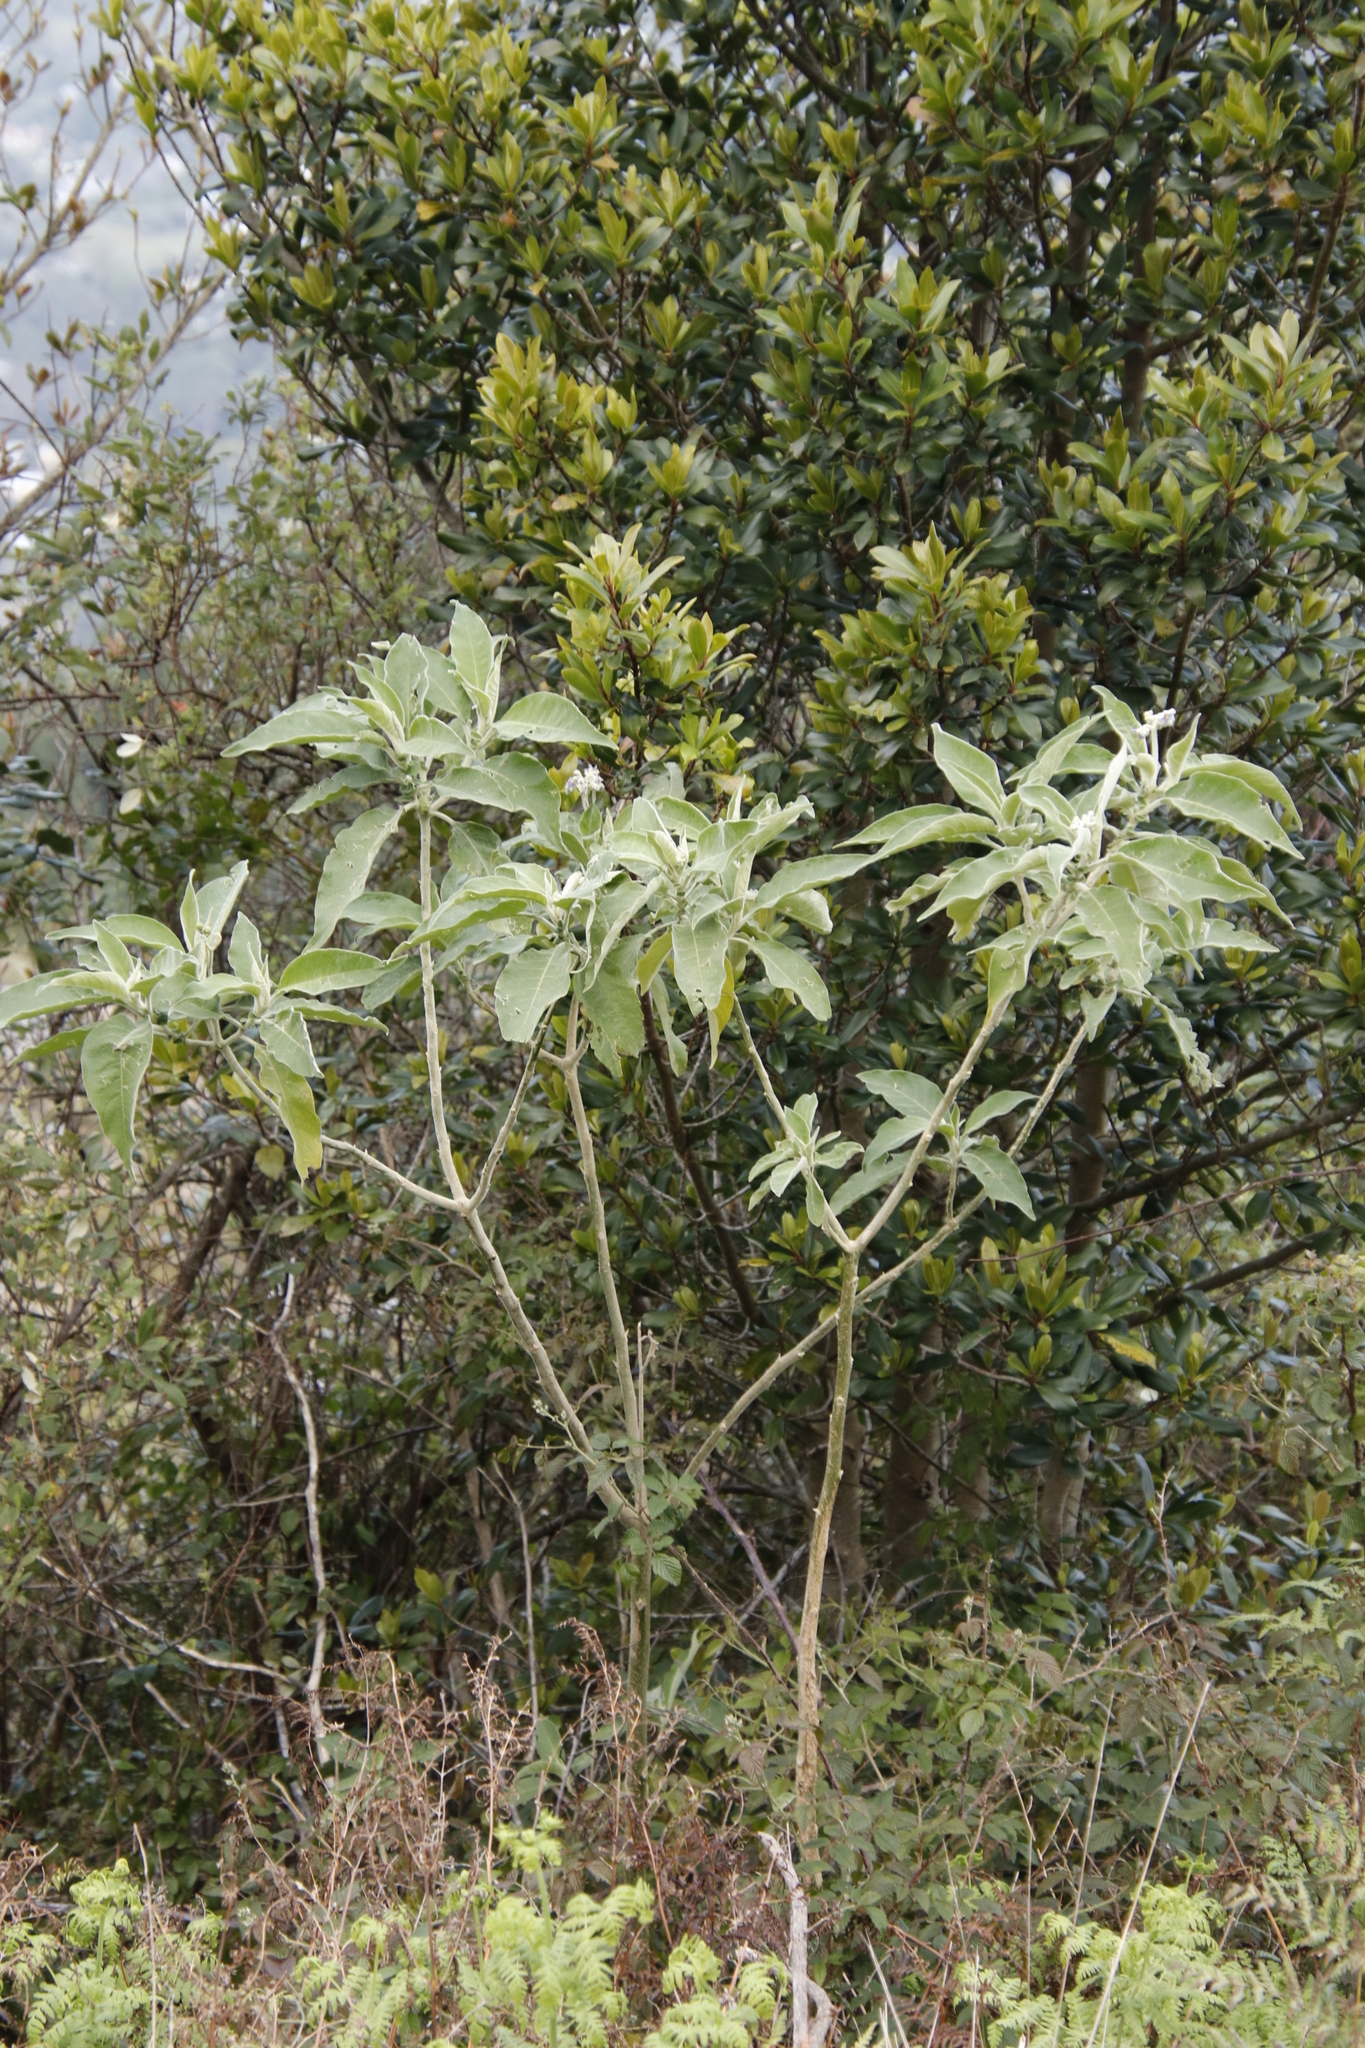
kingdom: Plantae
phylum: Tracheophyta
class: Magnoliopsida
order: Solanales
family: Solanaceae
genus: Solanum
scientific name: Solanum mauritianum
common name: Earleaf nightshade
